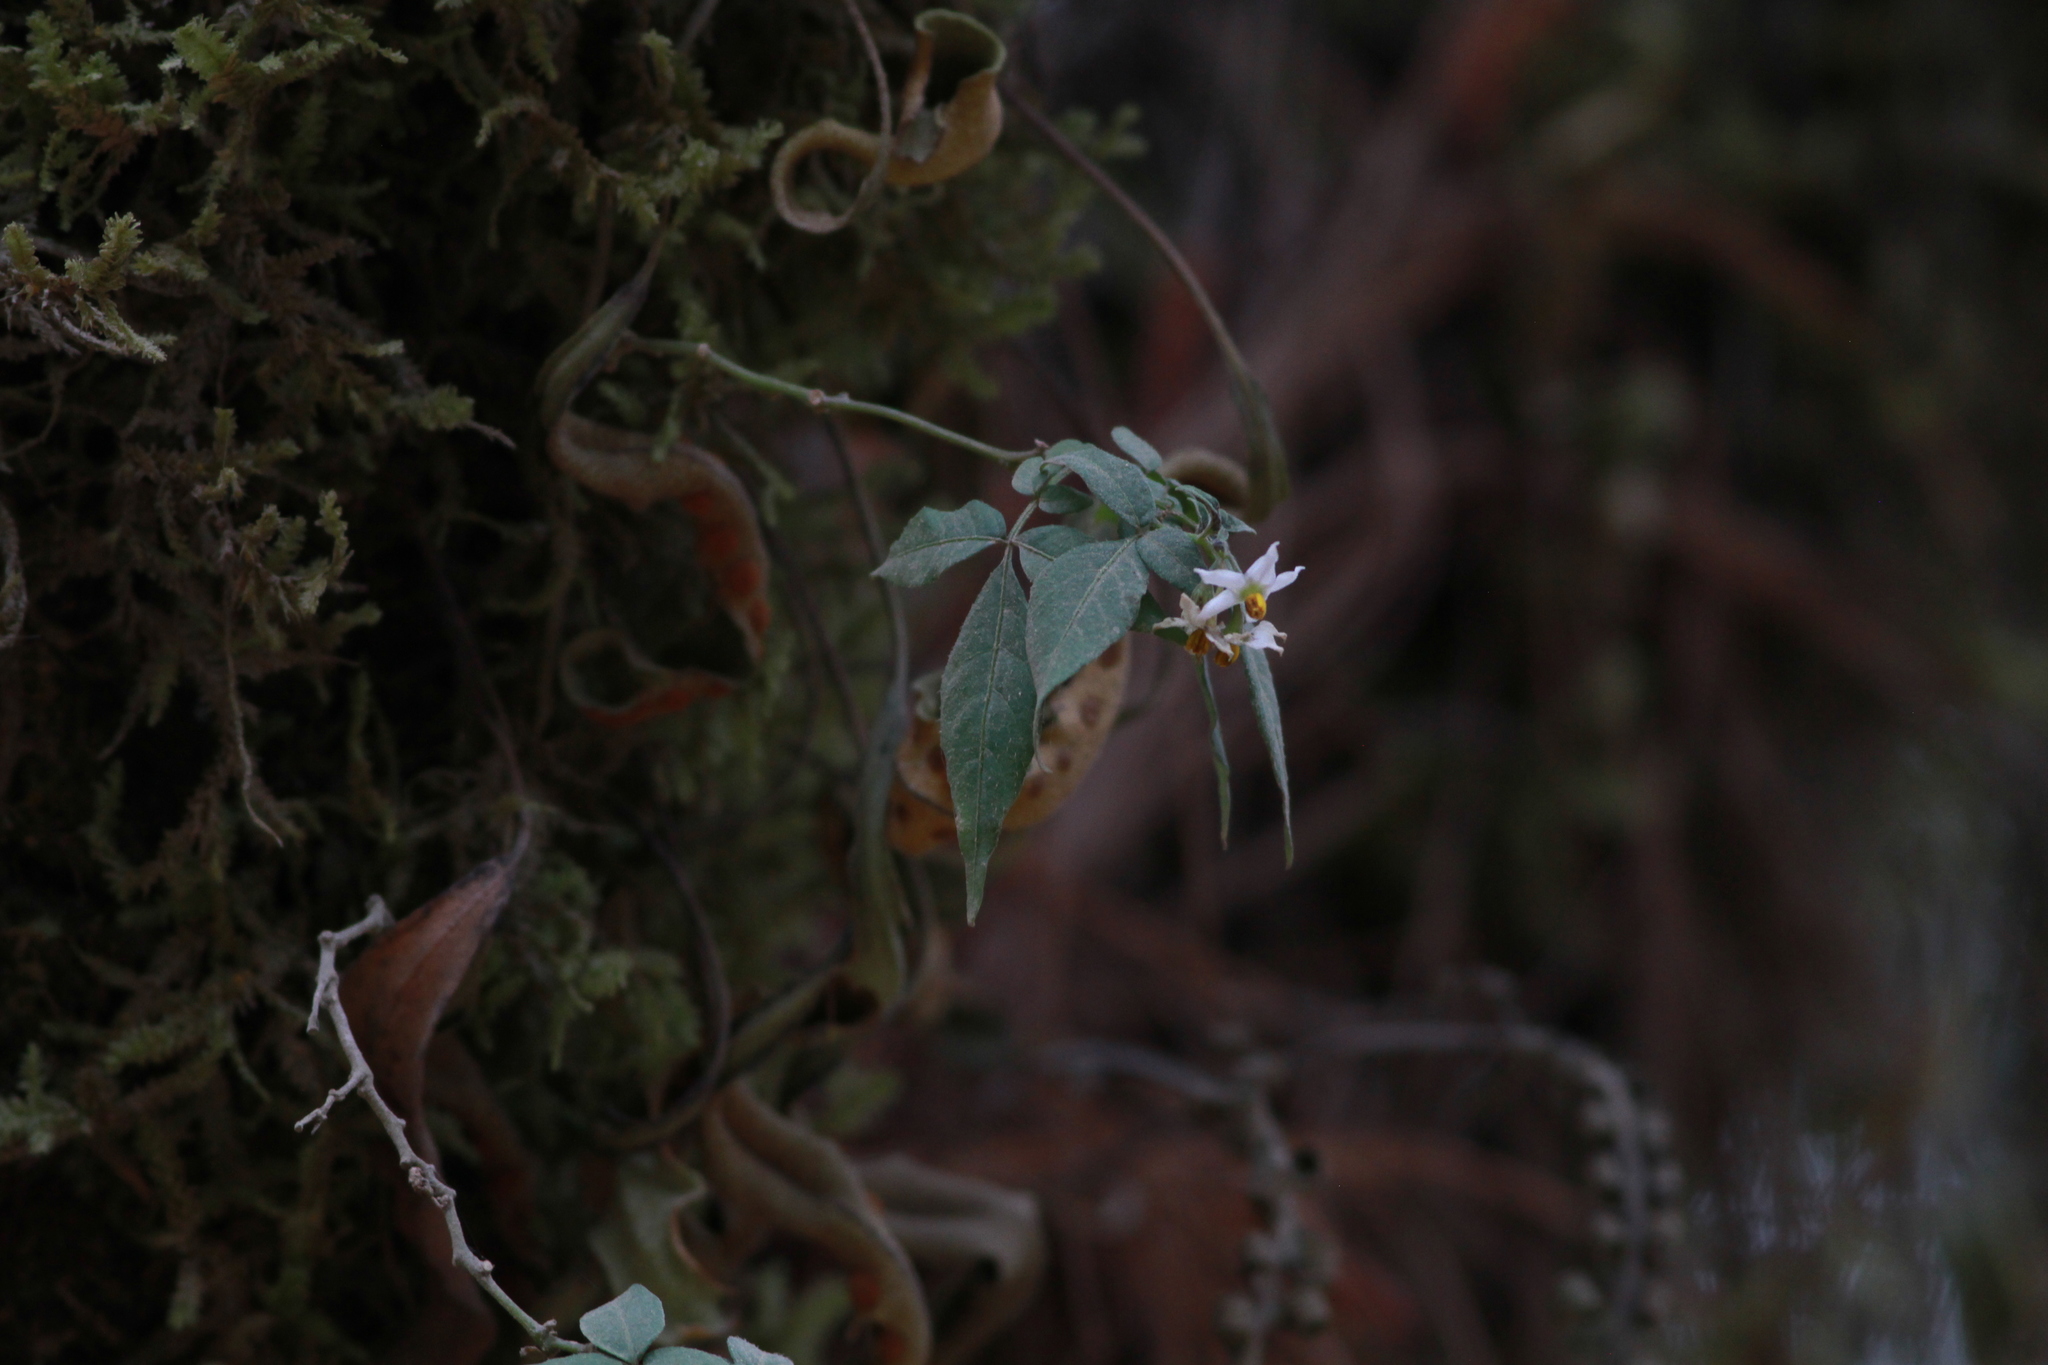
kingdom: Plantae
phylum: Tracheophyta
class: Magnoliopsida
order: Solanales
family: Solanaceae
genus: Solanum
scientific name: Solanum appendiculatum
